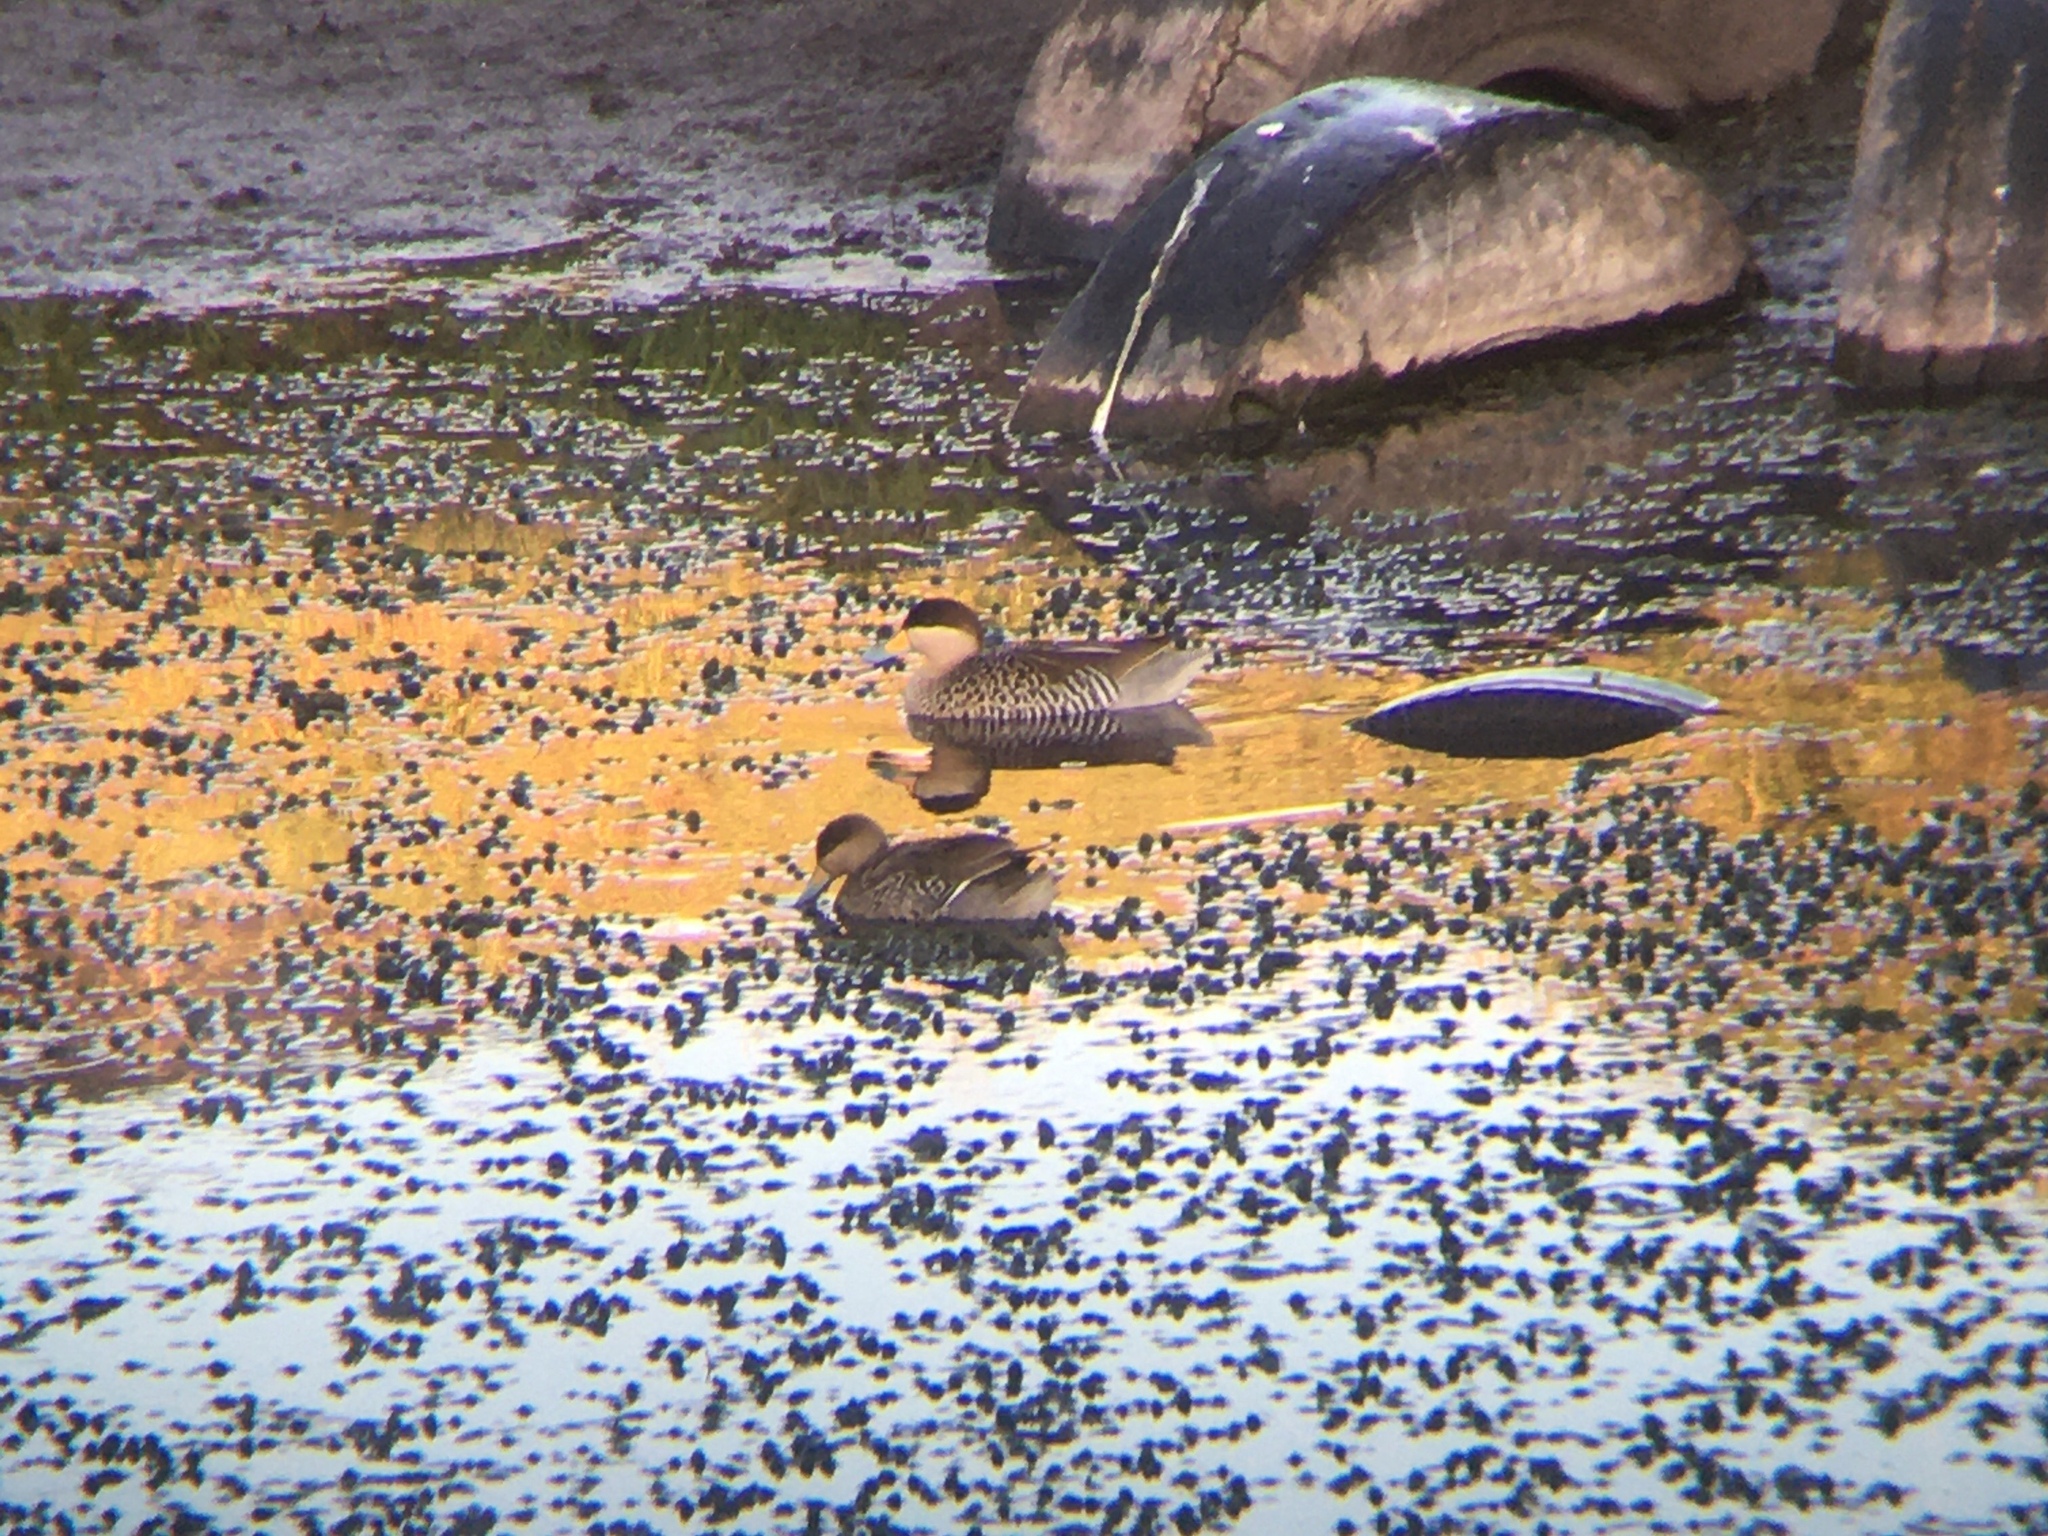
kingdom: Animalia
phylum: Chordata
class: Aves
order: Anseriformes
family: Anatidae
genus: Spatula
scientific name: Spatula versicolor
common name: Silver teal
